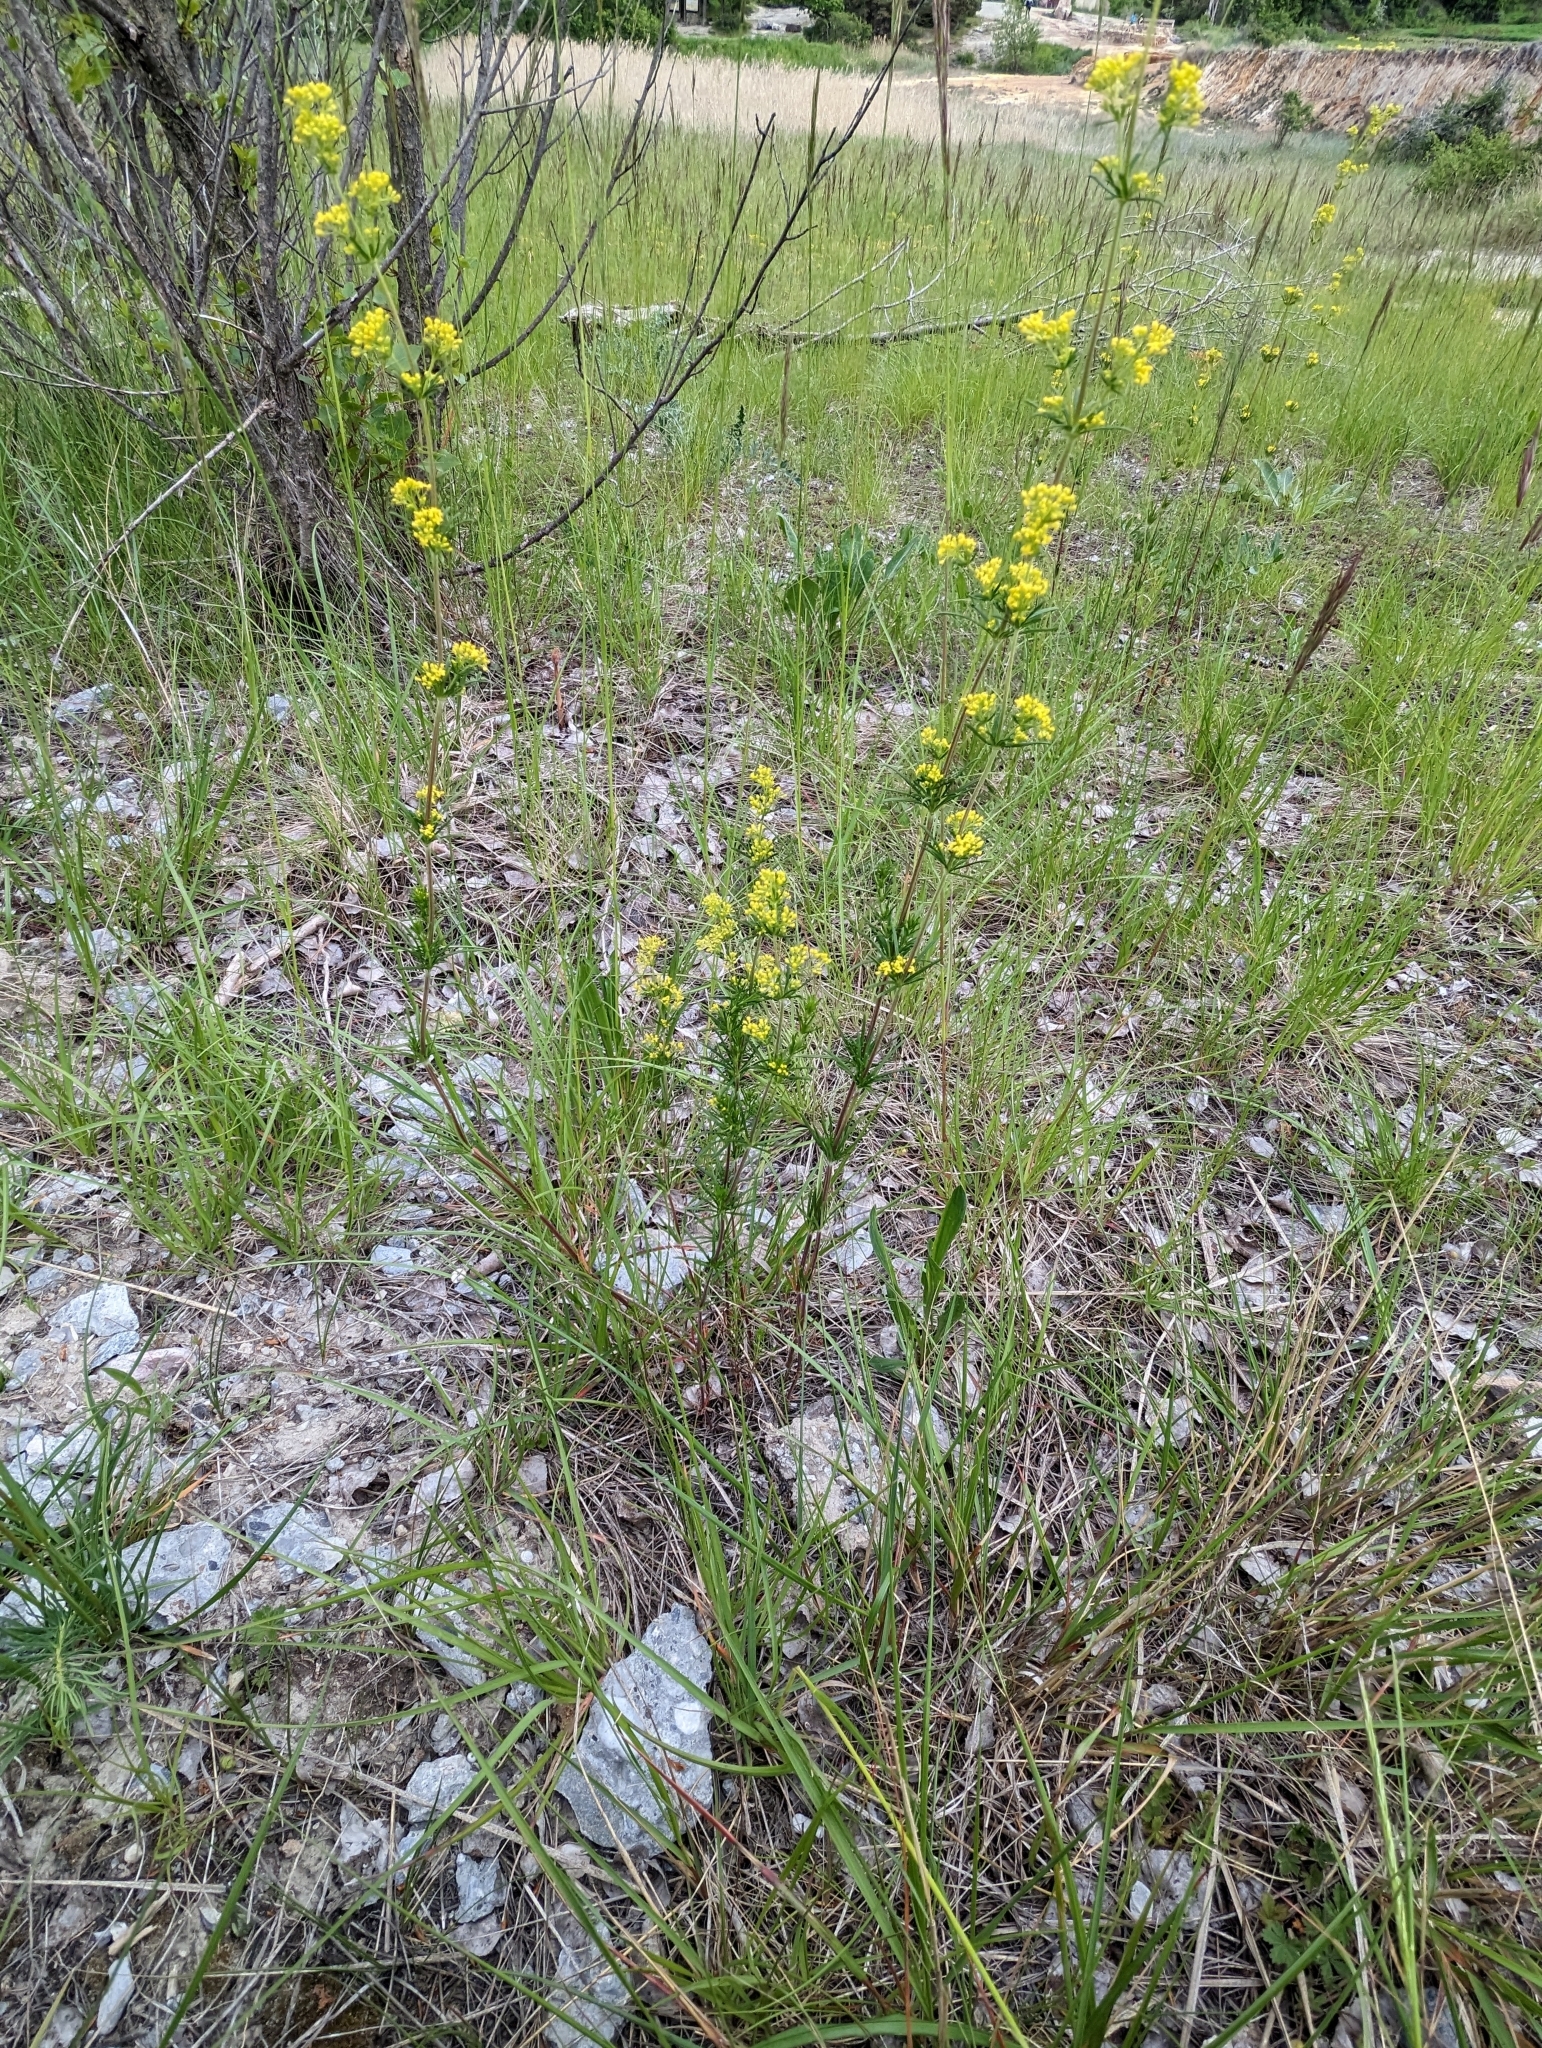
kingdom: Plantae
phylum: Tracheophyta
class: Magnoliopsida
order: Gentianales
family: Rubiaceae
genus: Galium
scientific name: Galium verum
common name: Lady's bedstraw
